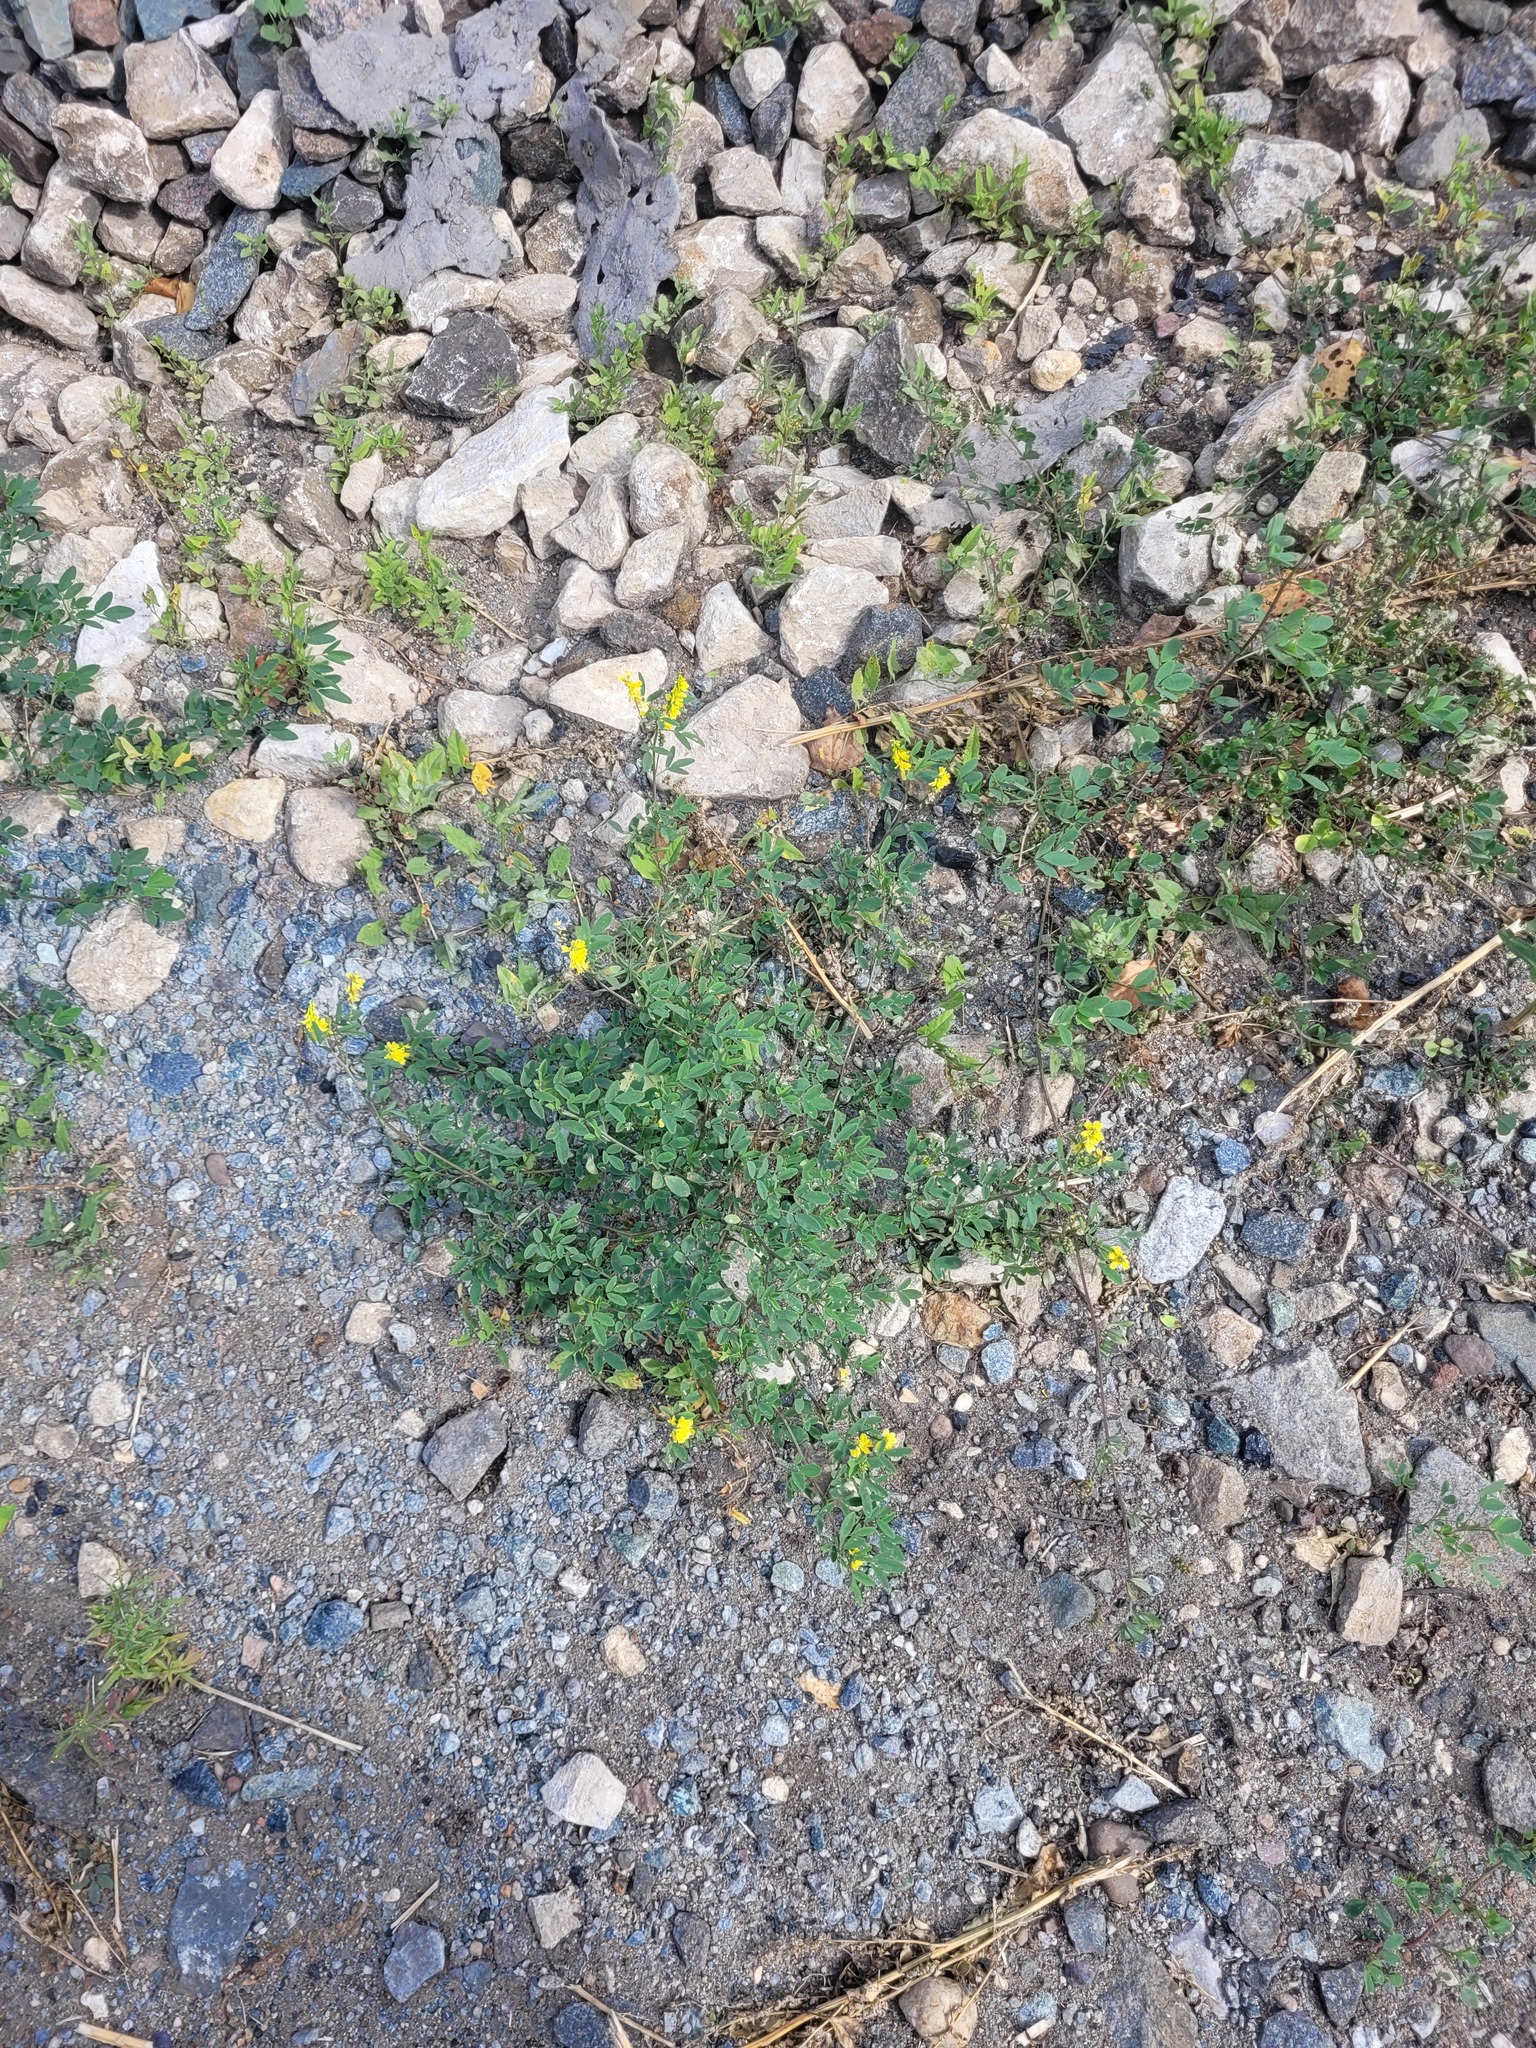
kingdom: Plantae
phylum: Tracheophyta
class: Magnoliopsida
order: Fabales
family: Fabaceae
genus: Medicago
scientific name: Medicago falcata
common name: Sickle medick
